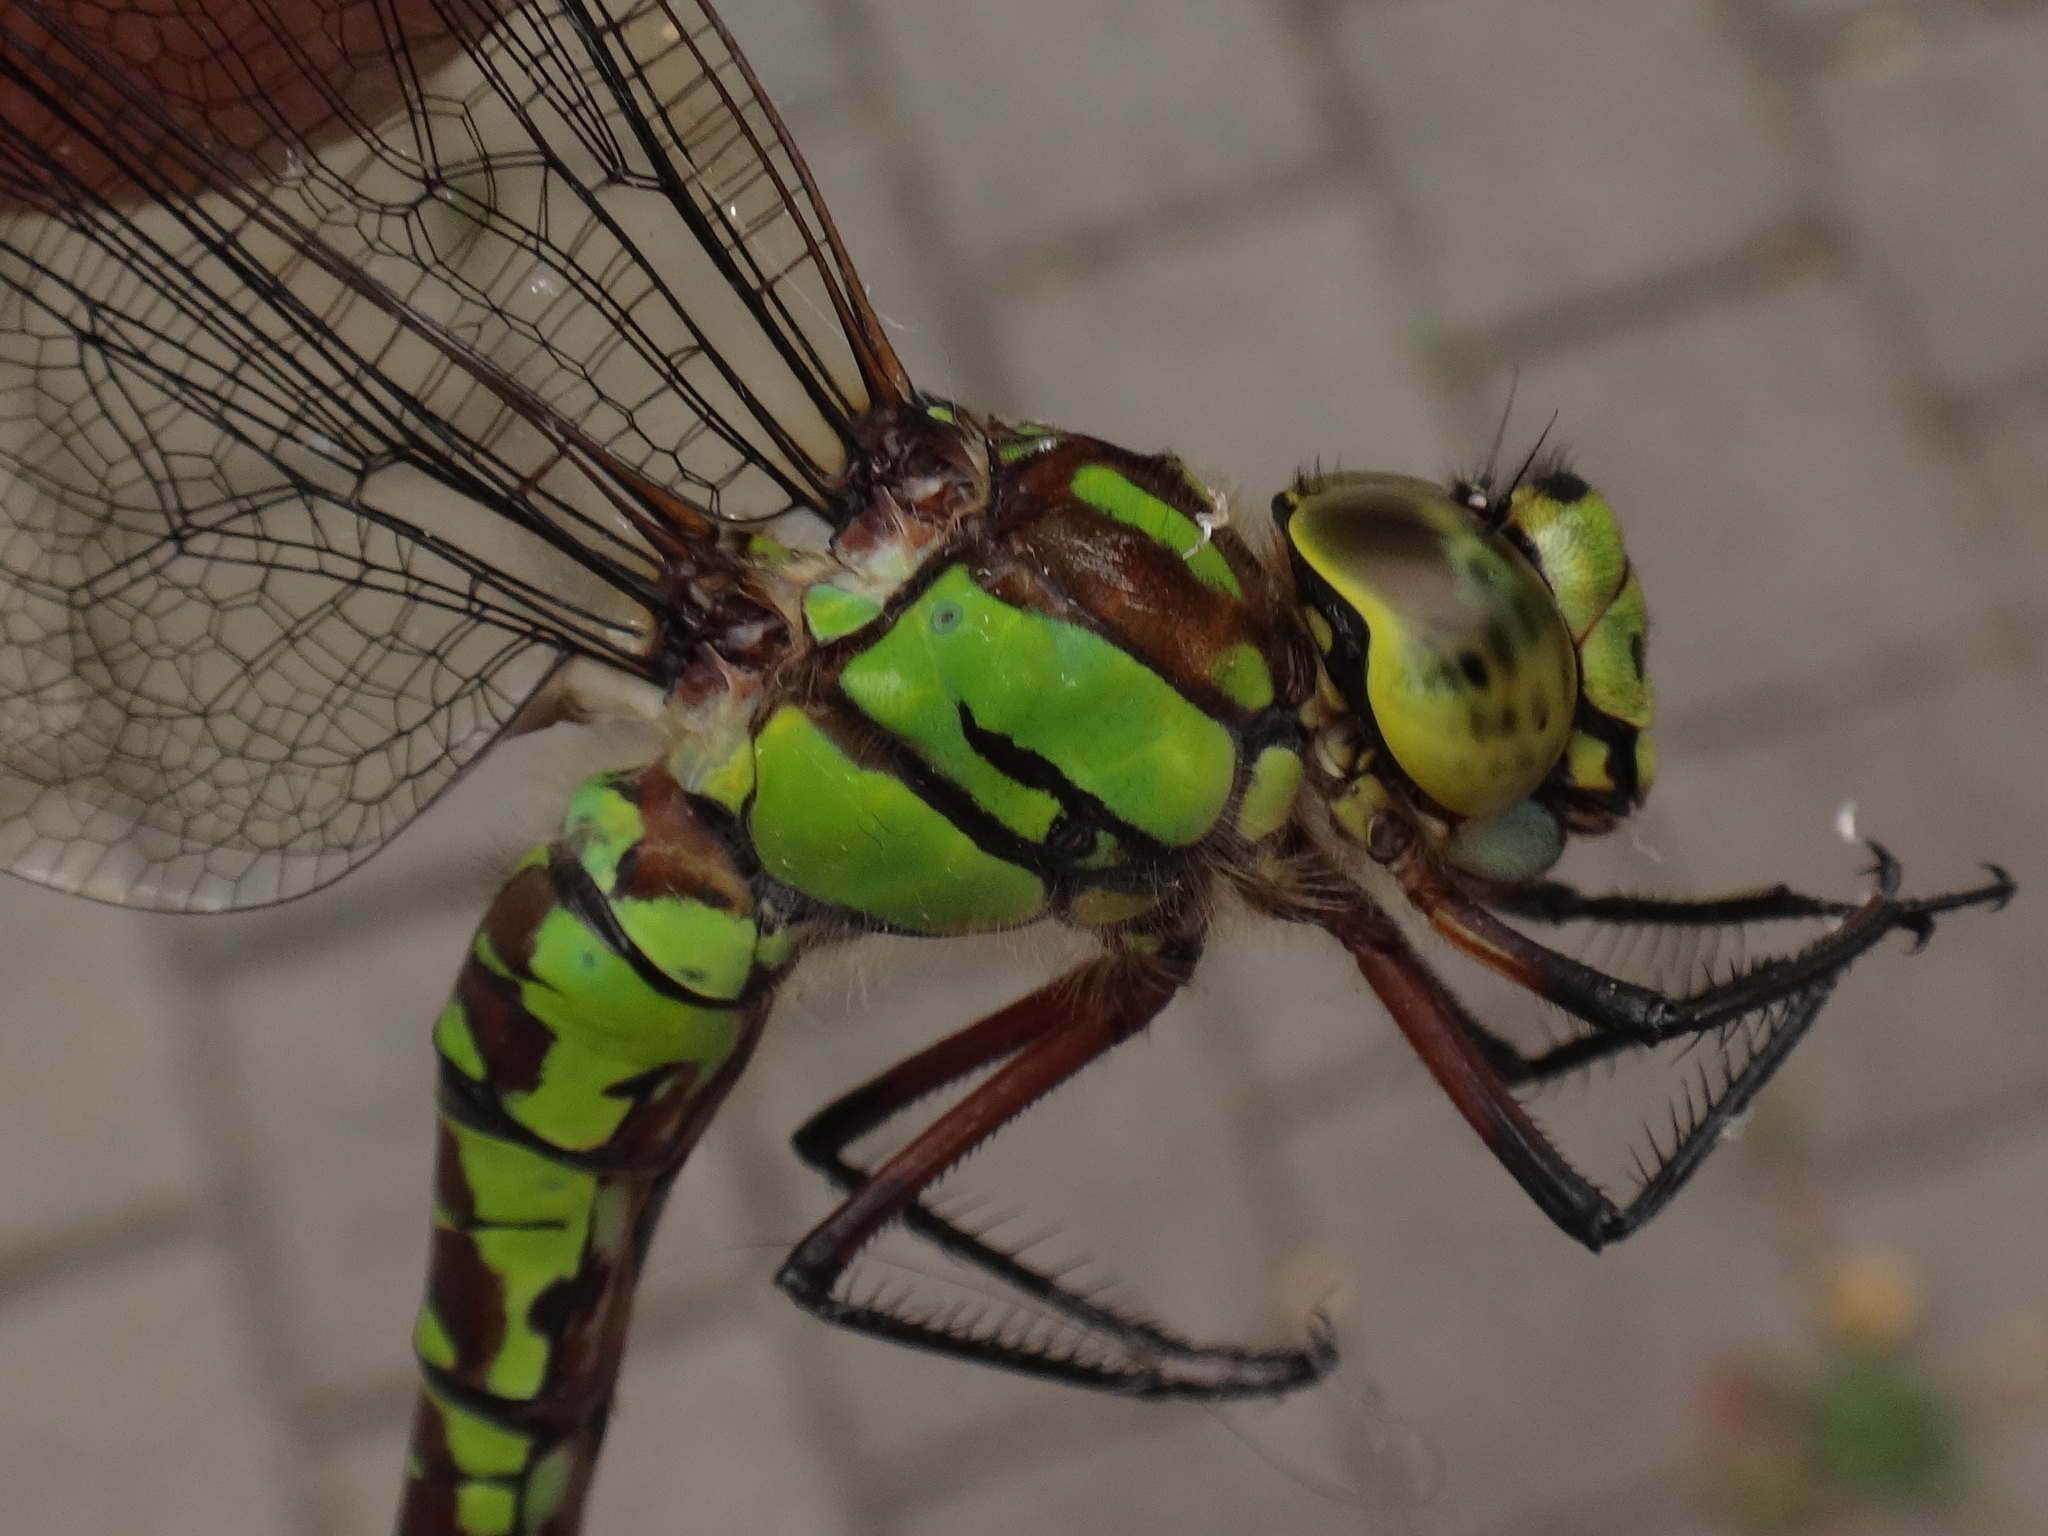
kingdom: Animalia
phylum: Arthropoda
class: Insecta
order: Odonata
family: Aeshnidae
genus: Aeshna
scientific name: Aeshna cyanea
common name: Southern hawker
